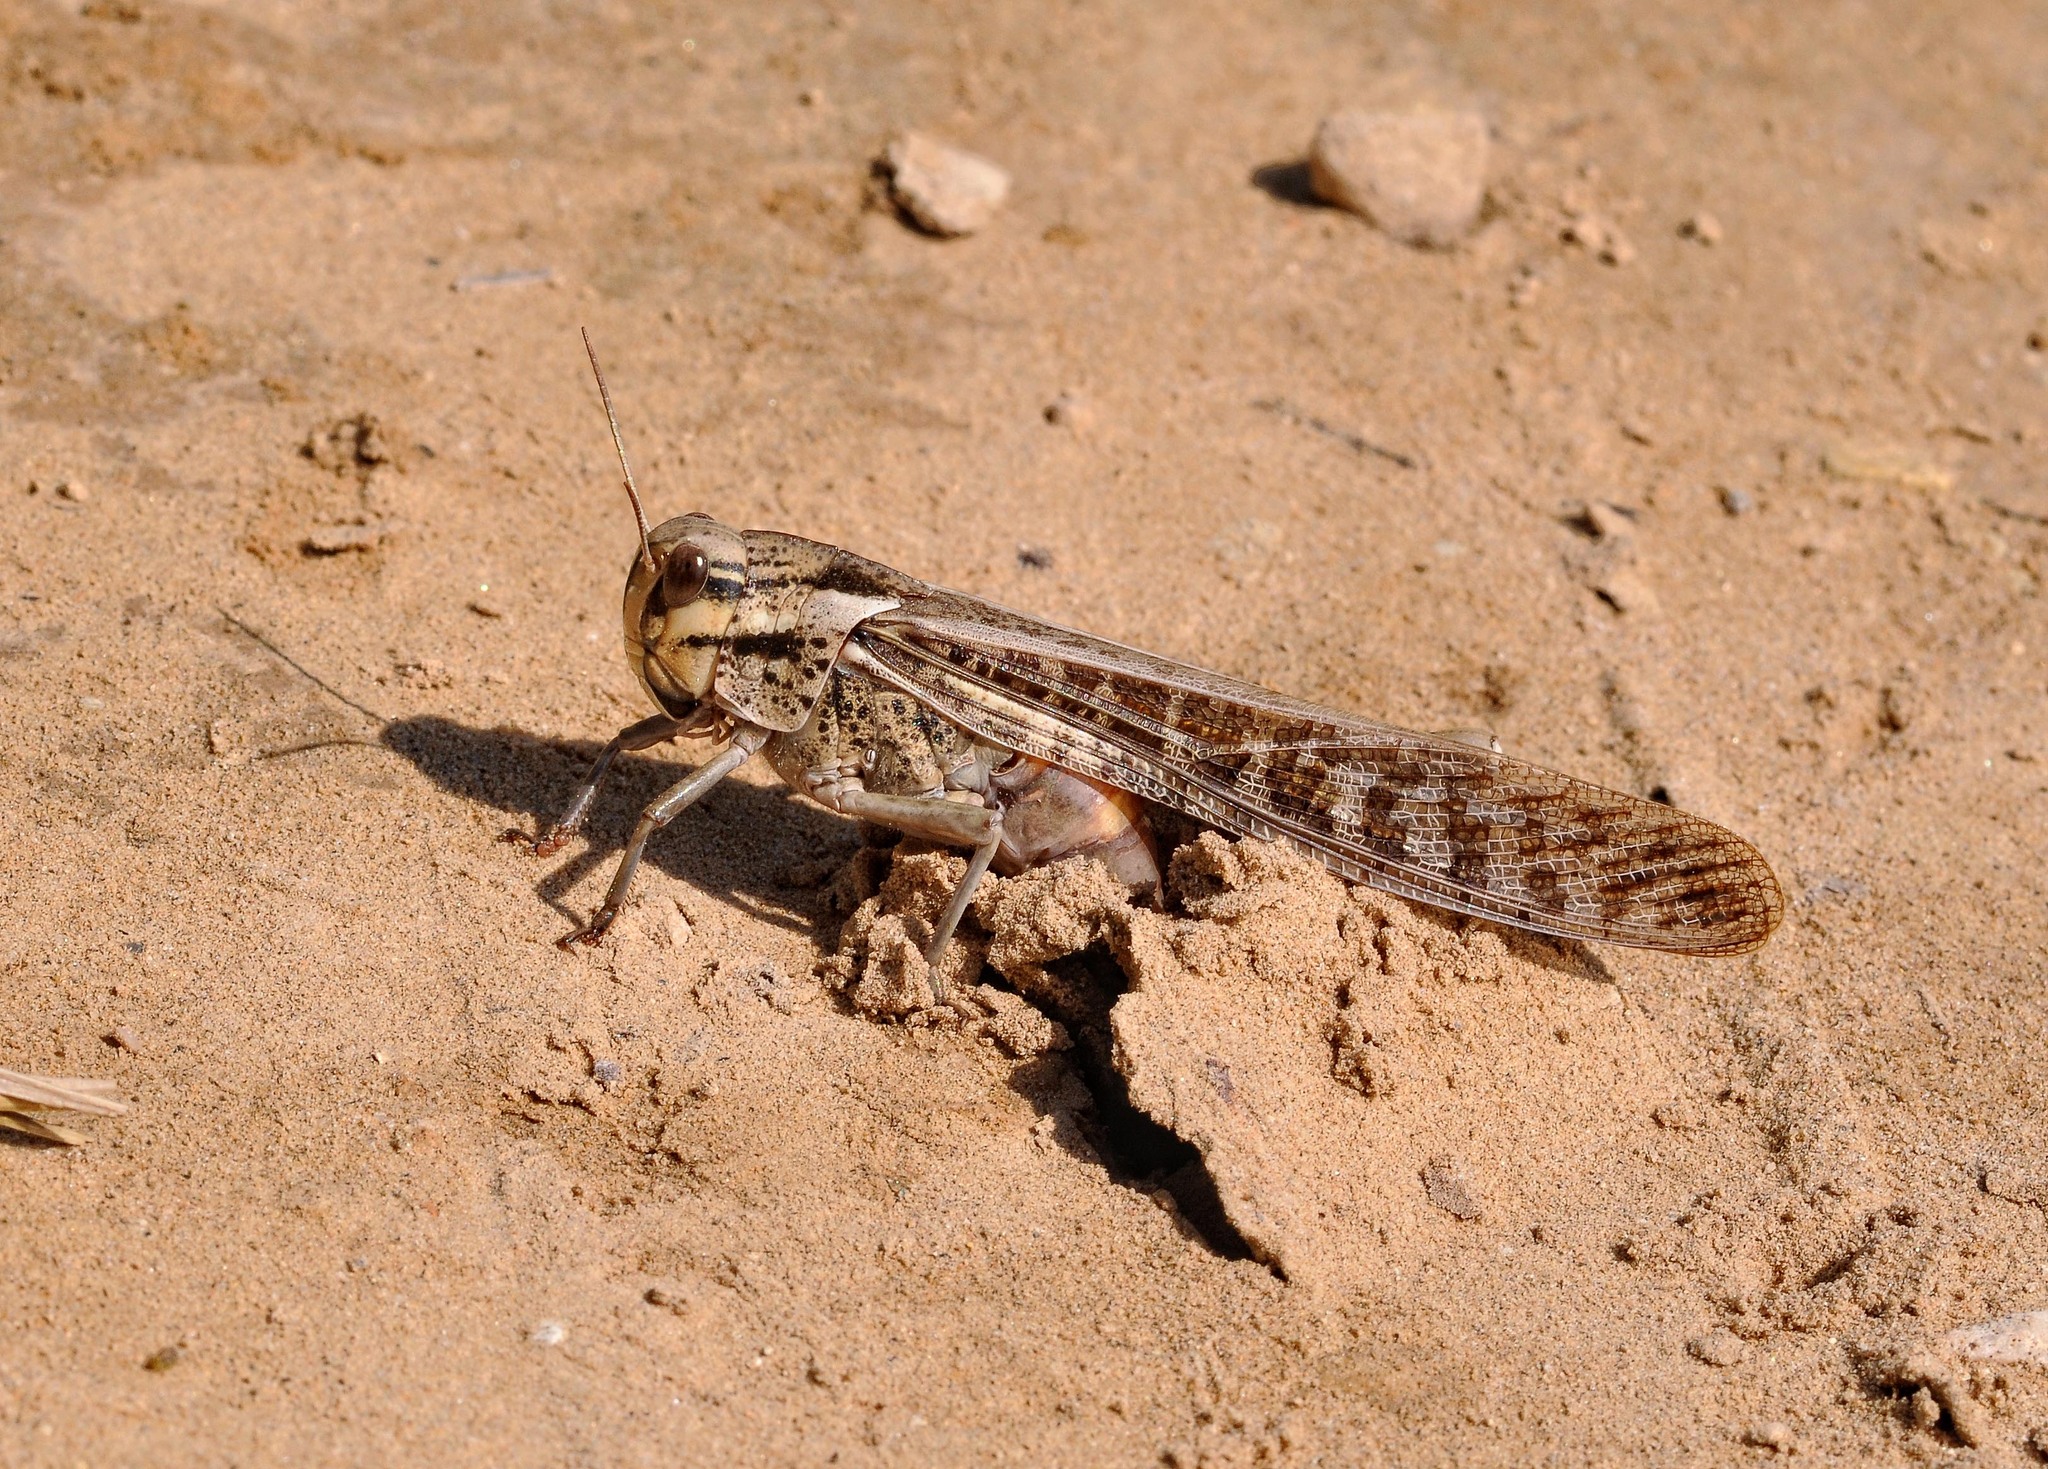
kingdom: Animalia
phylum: Arthropoda
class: Insecta
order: Orthoptera
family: Acrididae
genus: Locusta
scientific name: Locusta migratoria
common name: Migratory locust
